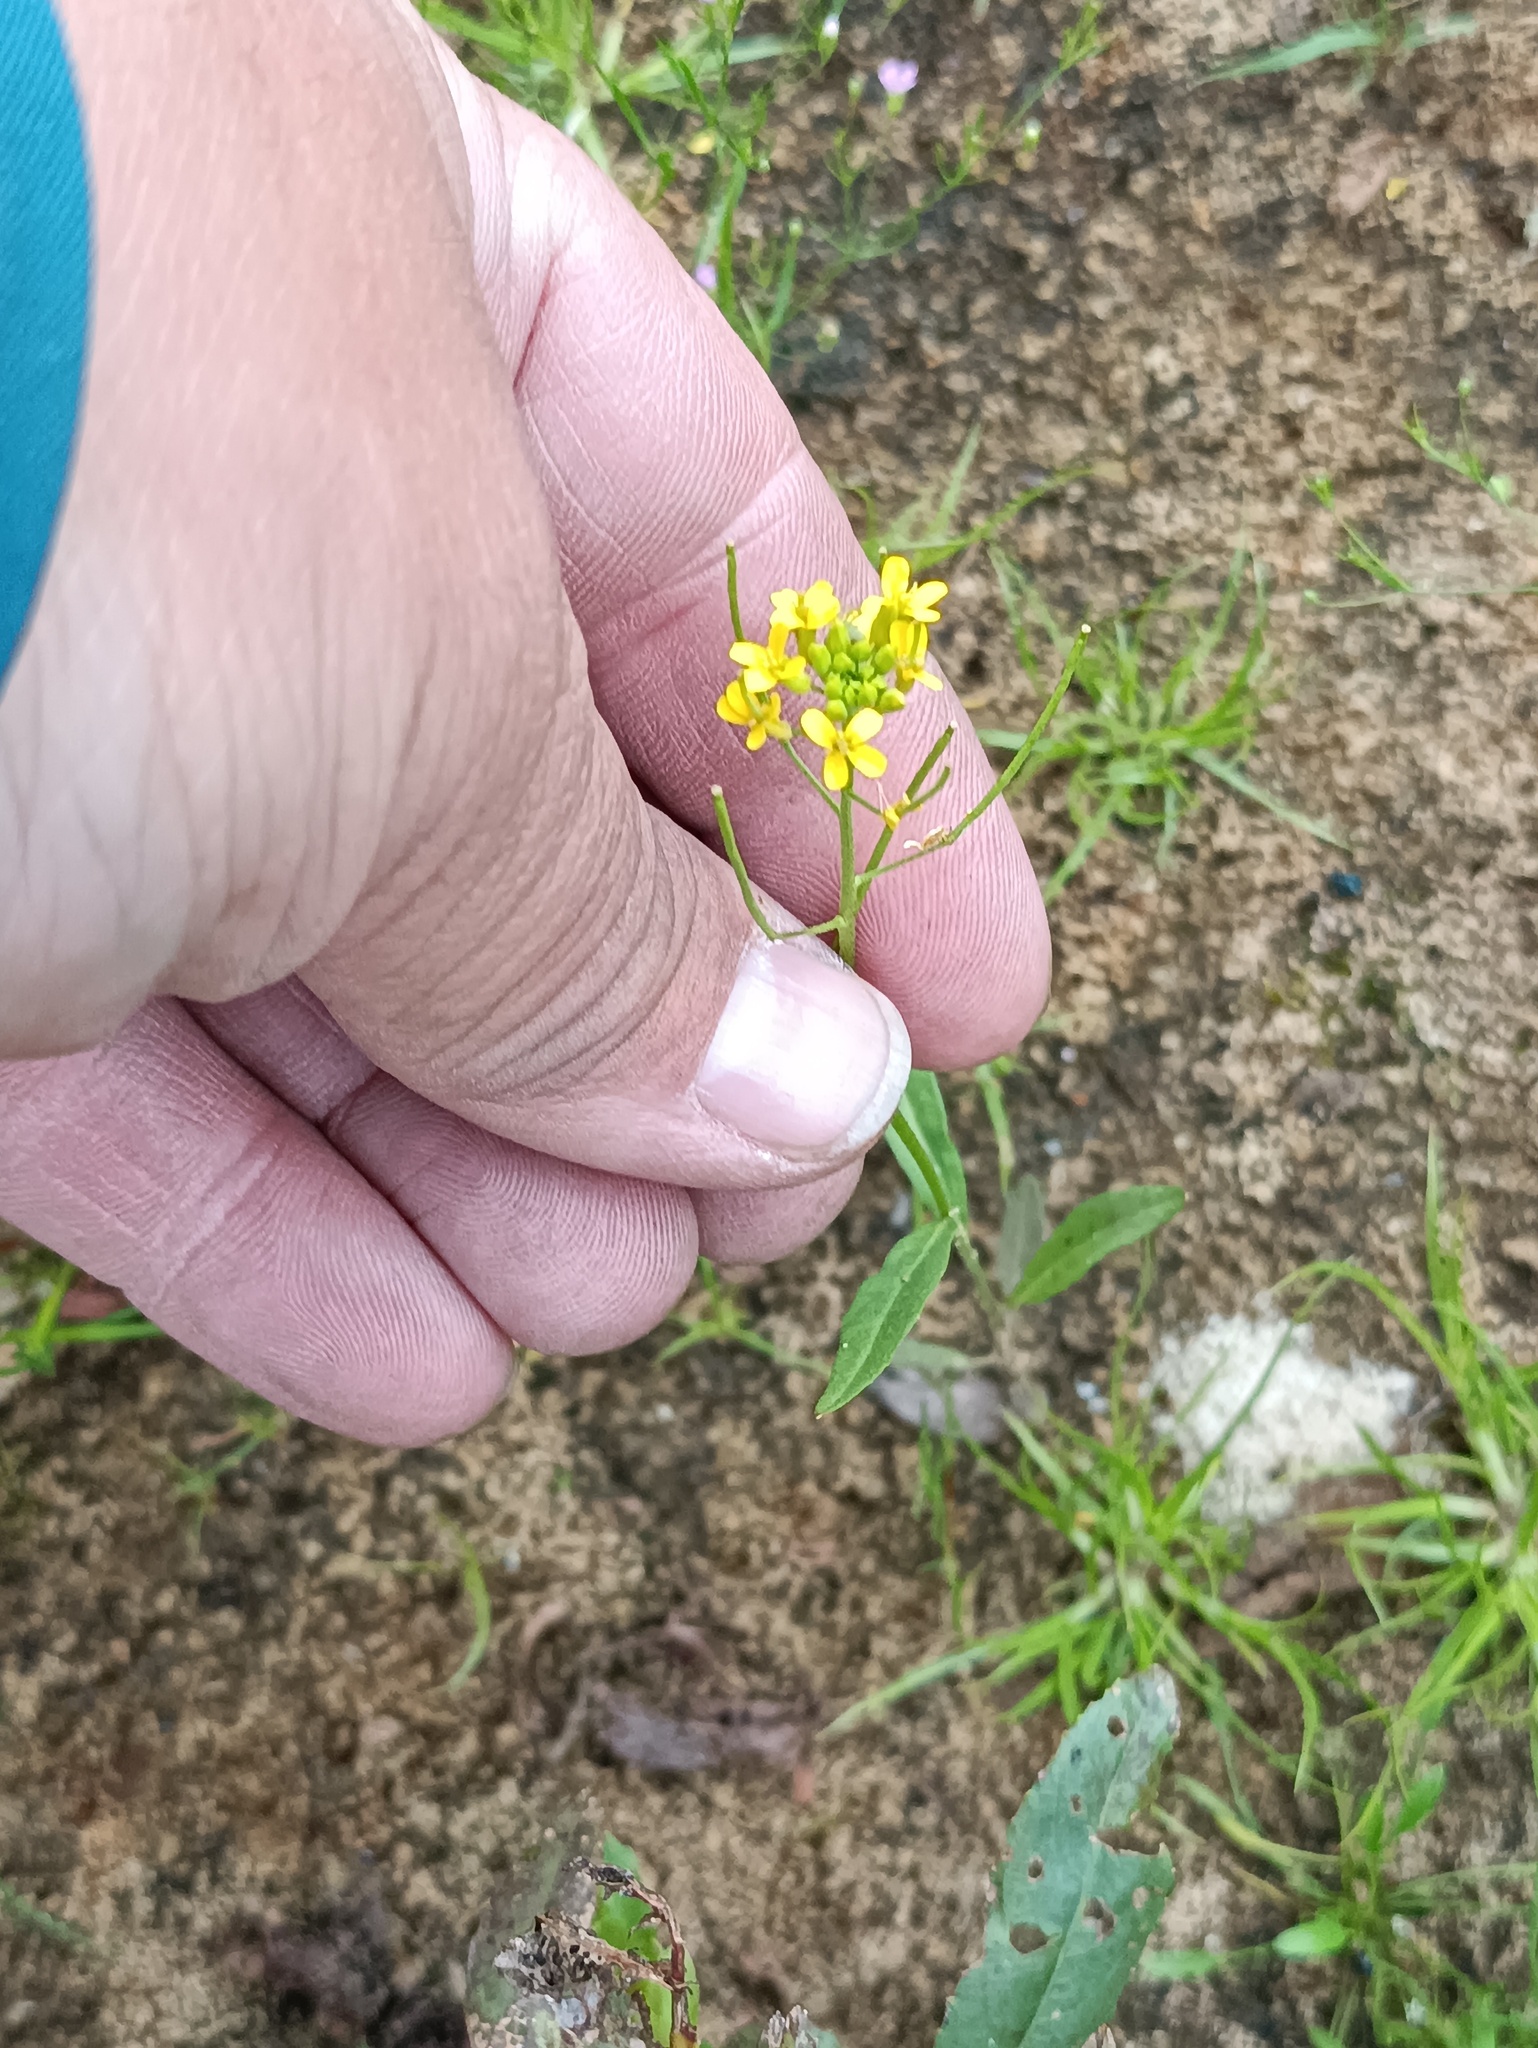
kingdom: Plantae
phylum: Tracheophyta
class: Magnoliopsida
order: Brassicales
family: Brassicaceae
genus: Erysimum
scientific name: Erysimum cheiranthoides
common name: Treacle mustard
